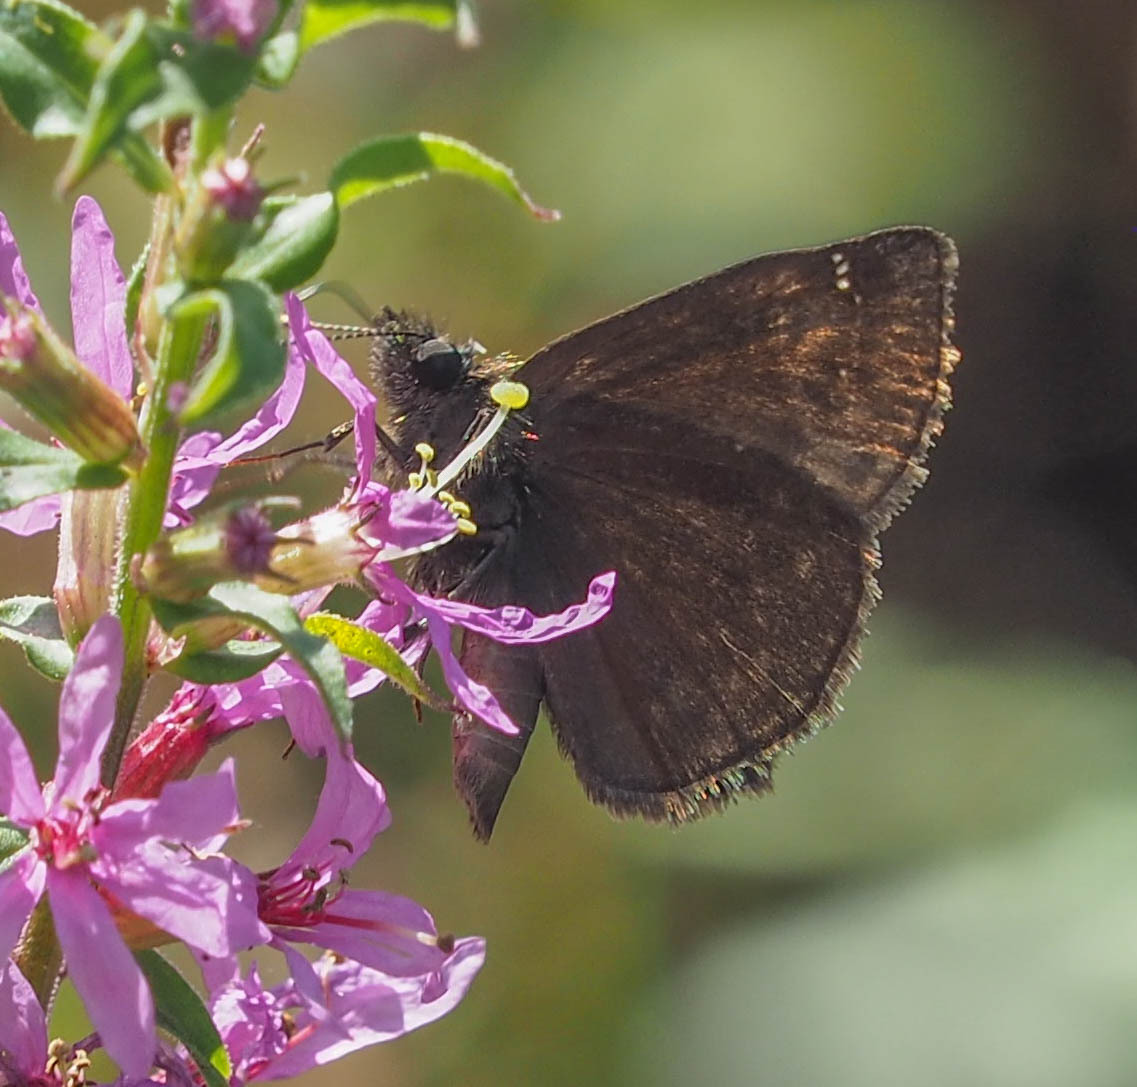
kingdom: Animalia
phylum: Arthropoda
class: Insecta
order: Lepidoptera
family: Hesperiidae
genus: Erynnis
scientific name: Erynnis baptisiae
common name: Wild indigo duskywing
